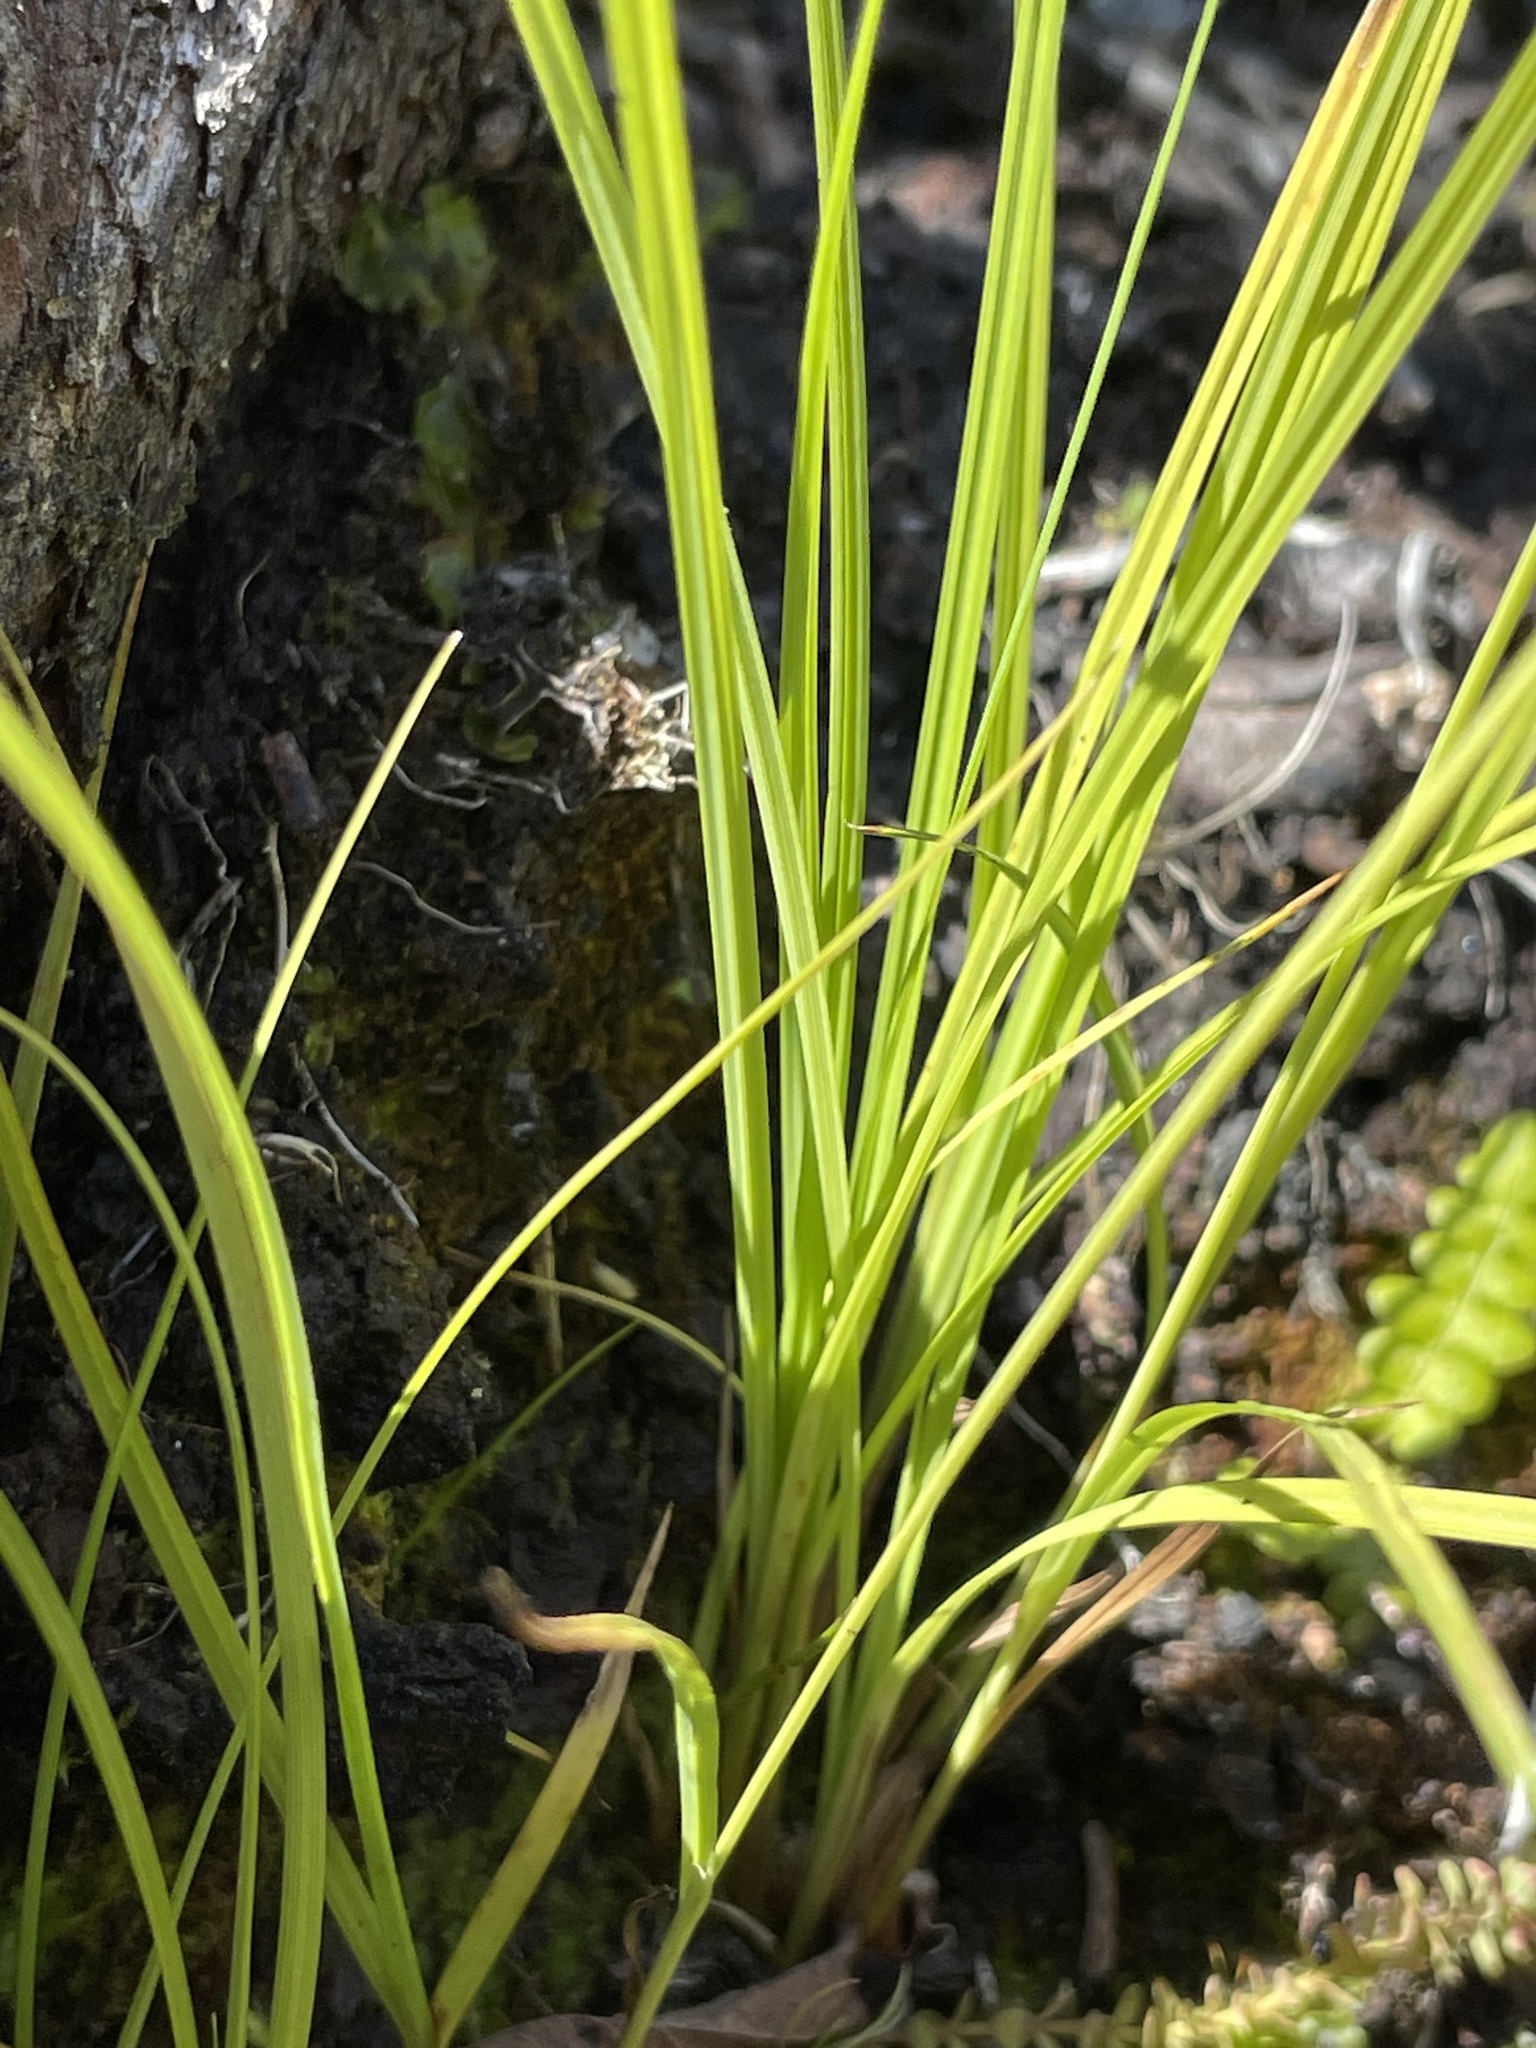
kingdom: Plantae
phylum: Tracheophyta
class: Liliopsida
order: Poales
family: Cyperaceae
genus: Carex
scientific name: Carex echinata
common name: Star sedge
